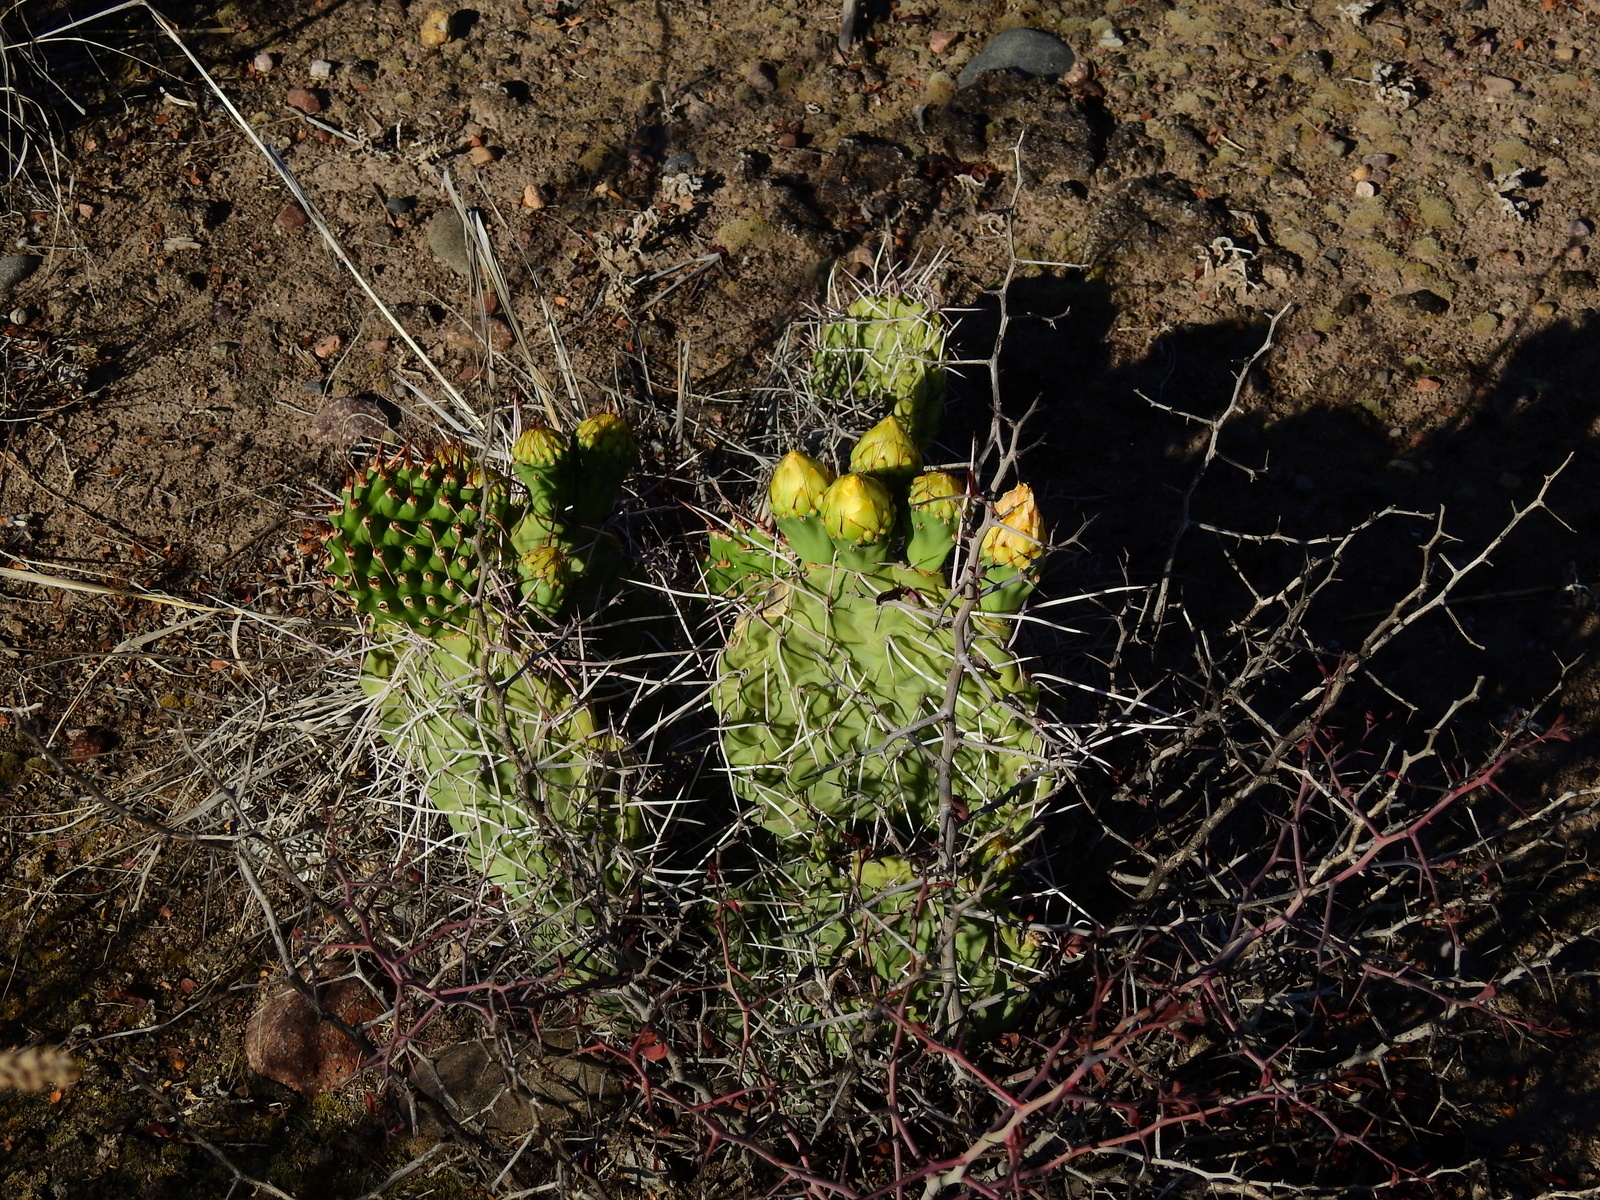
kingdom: Plantae
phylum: Tracheophyta
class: Magnoliopsida
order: Caryophyllales
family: Cactaceae
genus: Opuntia
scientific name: Opuntia sulphurea
